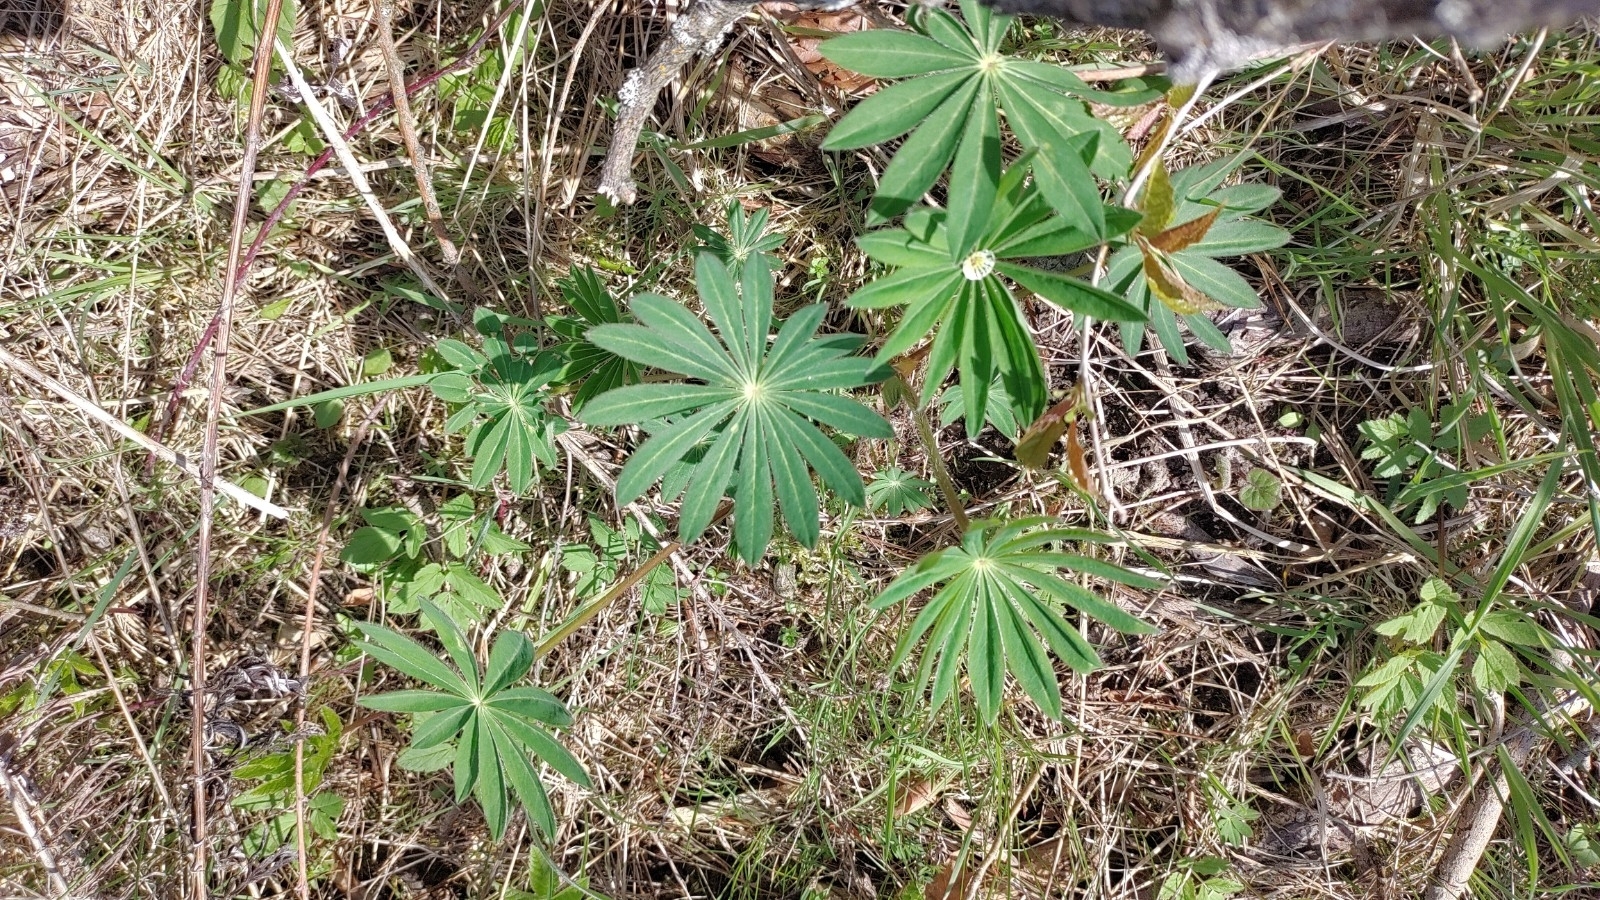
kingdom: Plantae
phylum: Tracheophyta
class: Magnoliopsida
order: Fabales
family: Fabaceae
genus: Lupinus
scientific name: Lupinus polyphyllus
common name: Garden lupin
